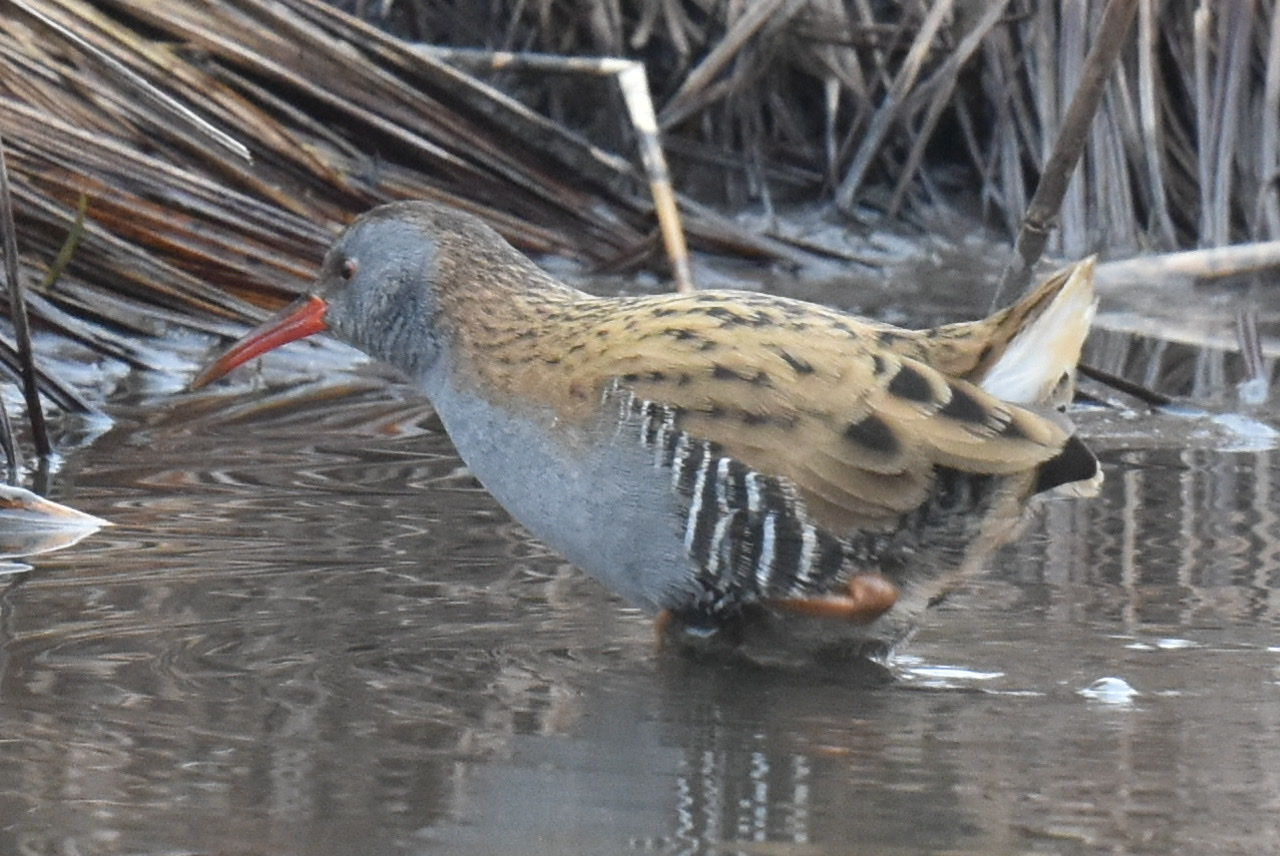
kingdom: Animalia
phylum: Chordata
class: Aves
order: Gruiformes
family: Rallidae
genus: Rallus
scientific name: Rallus aquaticus
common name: Water rail
